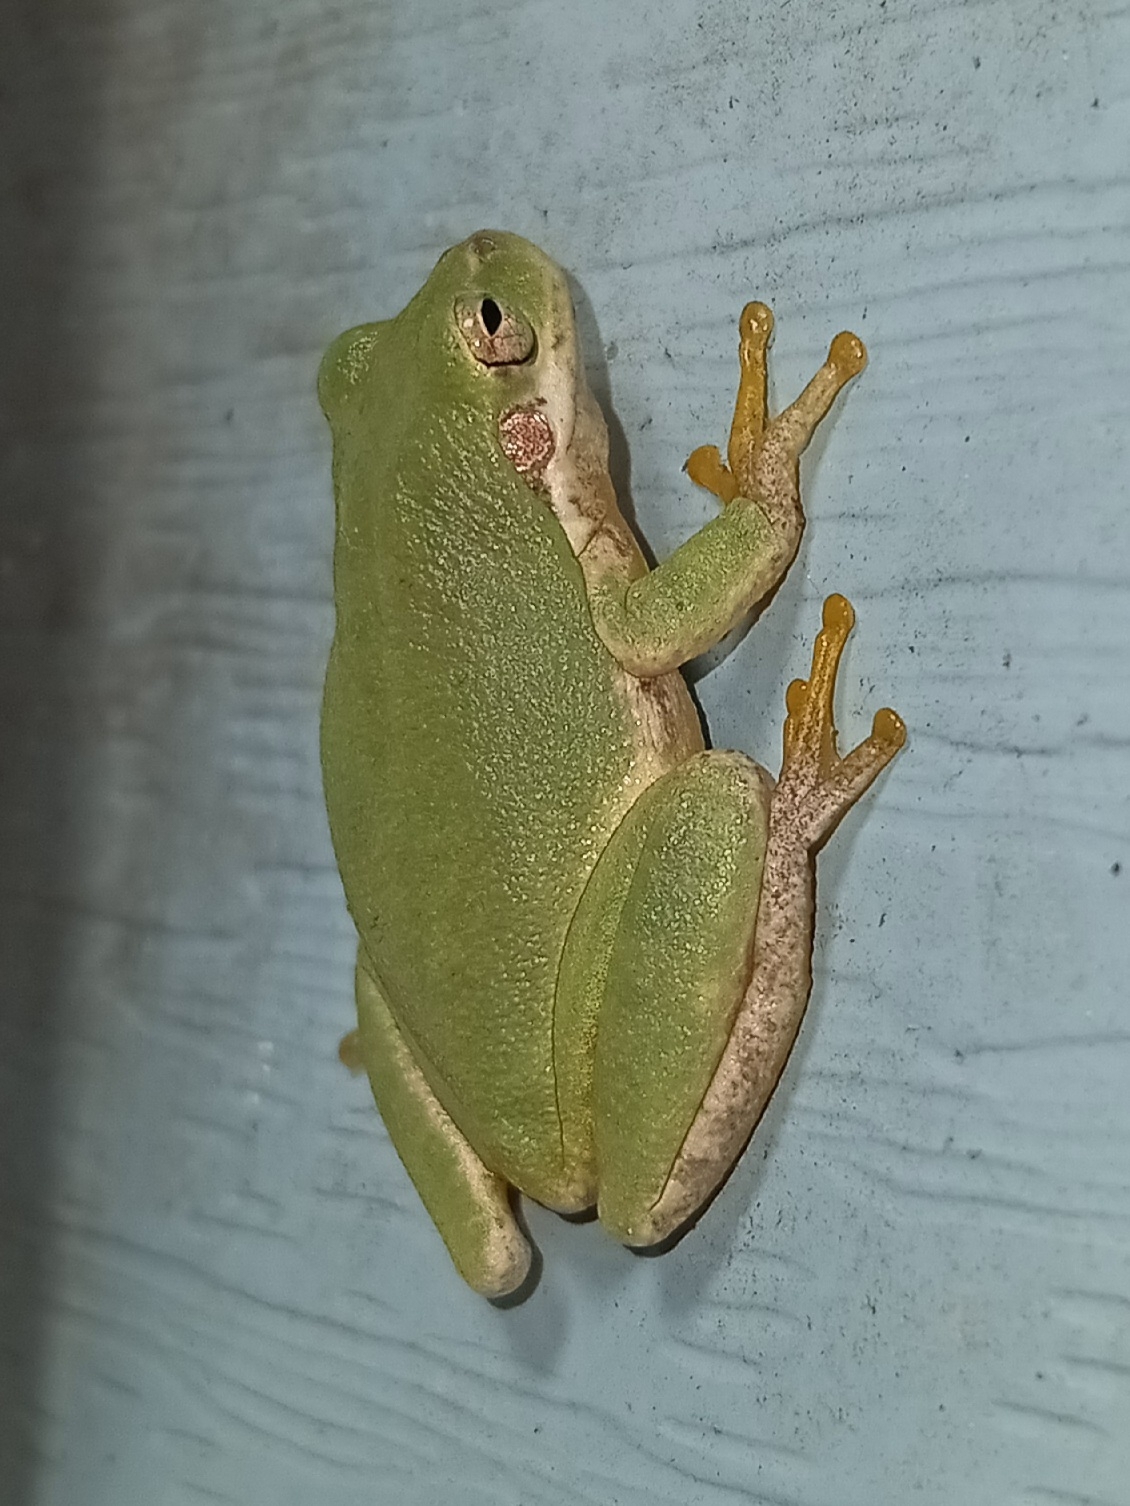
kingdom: Animalia
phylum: Chordata
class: Amphibia
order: Anura
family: Hylidae
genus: Dryophytes
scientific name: Dryophytes squirellus
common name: Squirrel treefrog
